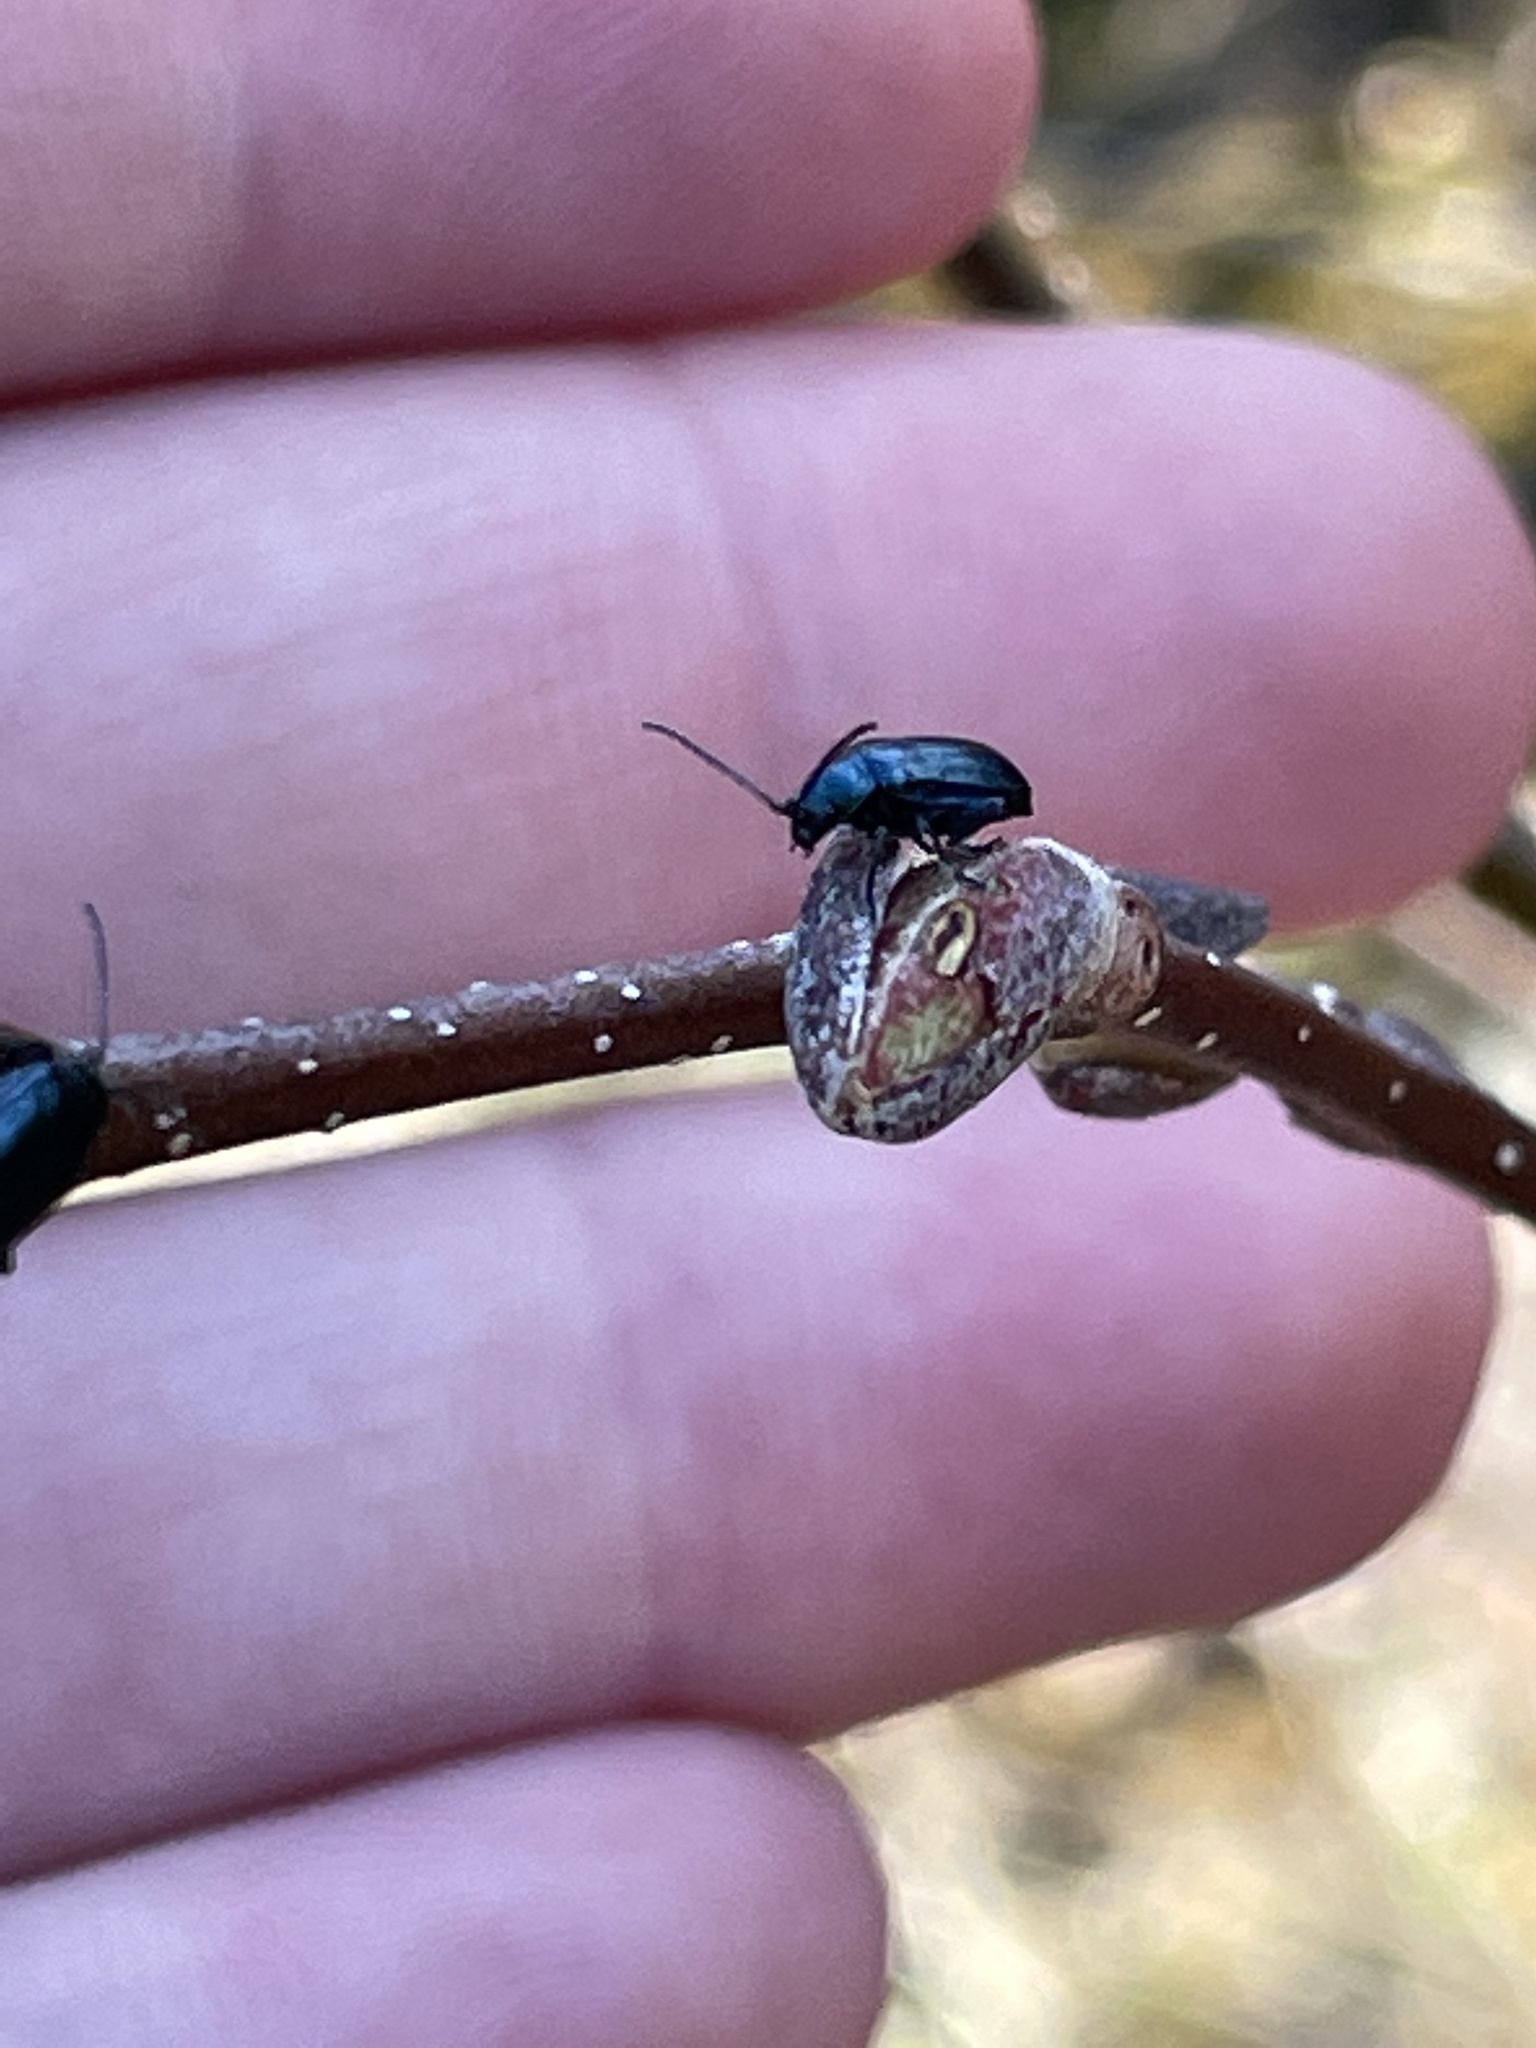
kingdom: Animalia
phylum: Arthropoda
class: Insecta
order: Coleoptera
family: Chrysomelidae
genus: Altica
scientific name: Altica ambiens
